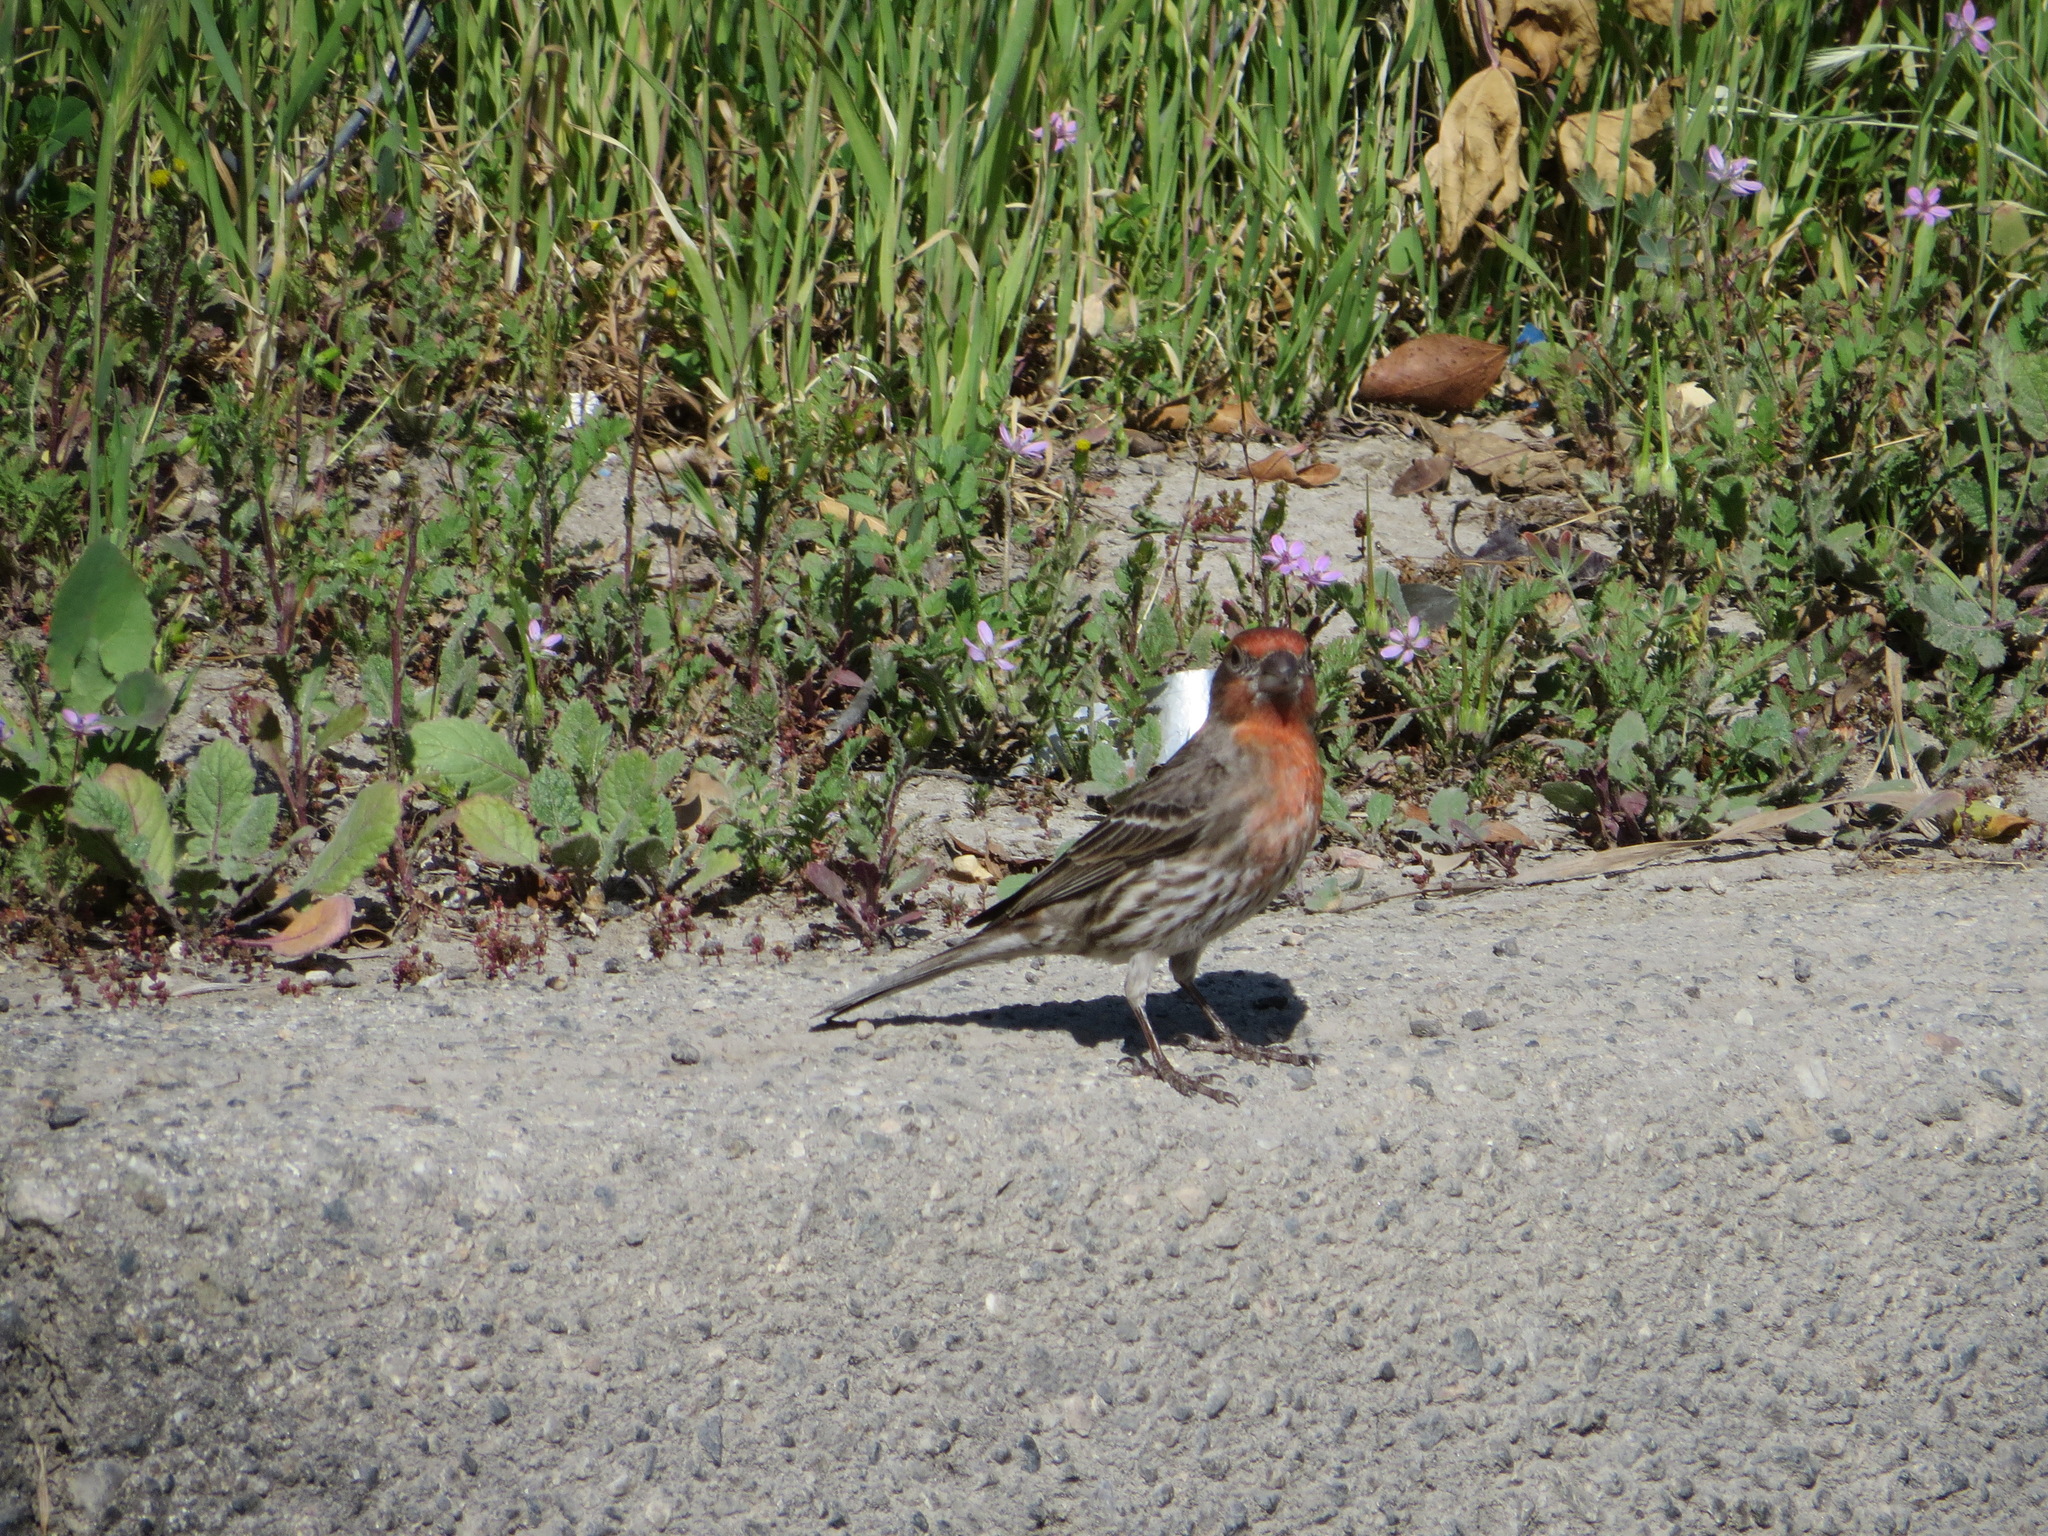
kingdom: Animalia
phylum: Chordata
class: Aves
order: Passeriformes
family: Fringillidae
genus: Haemorhous
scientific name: Haemorhous mexicanus
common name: House finch
